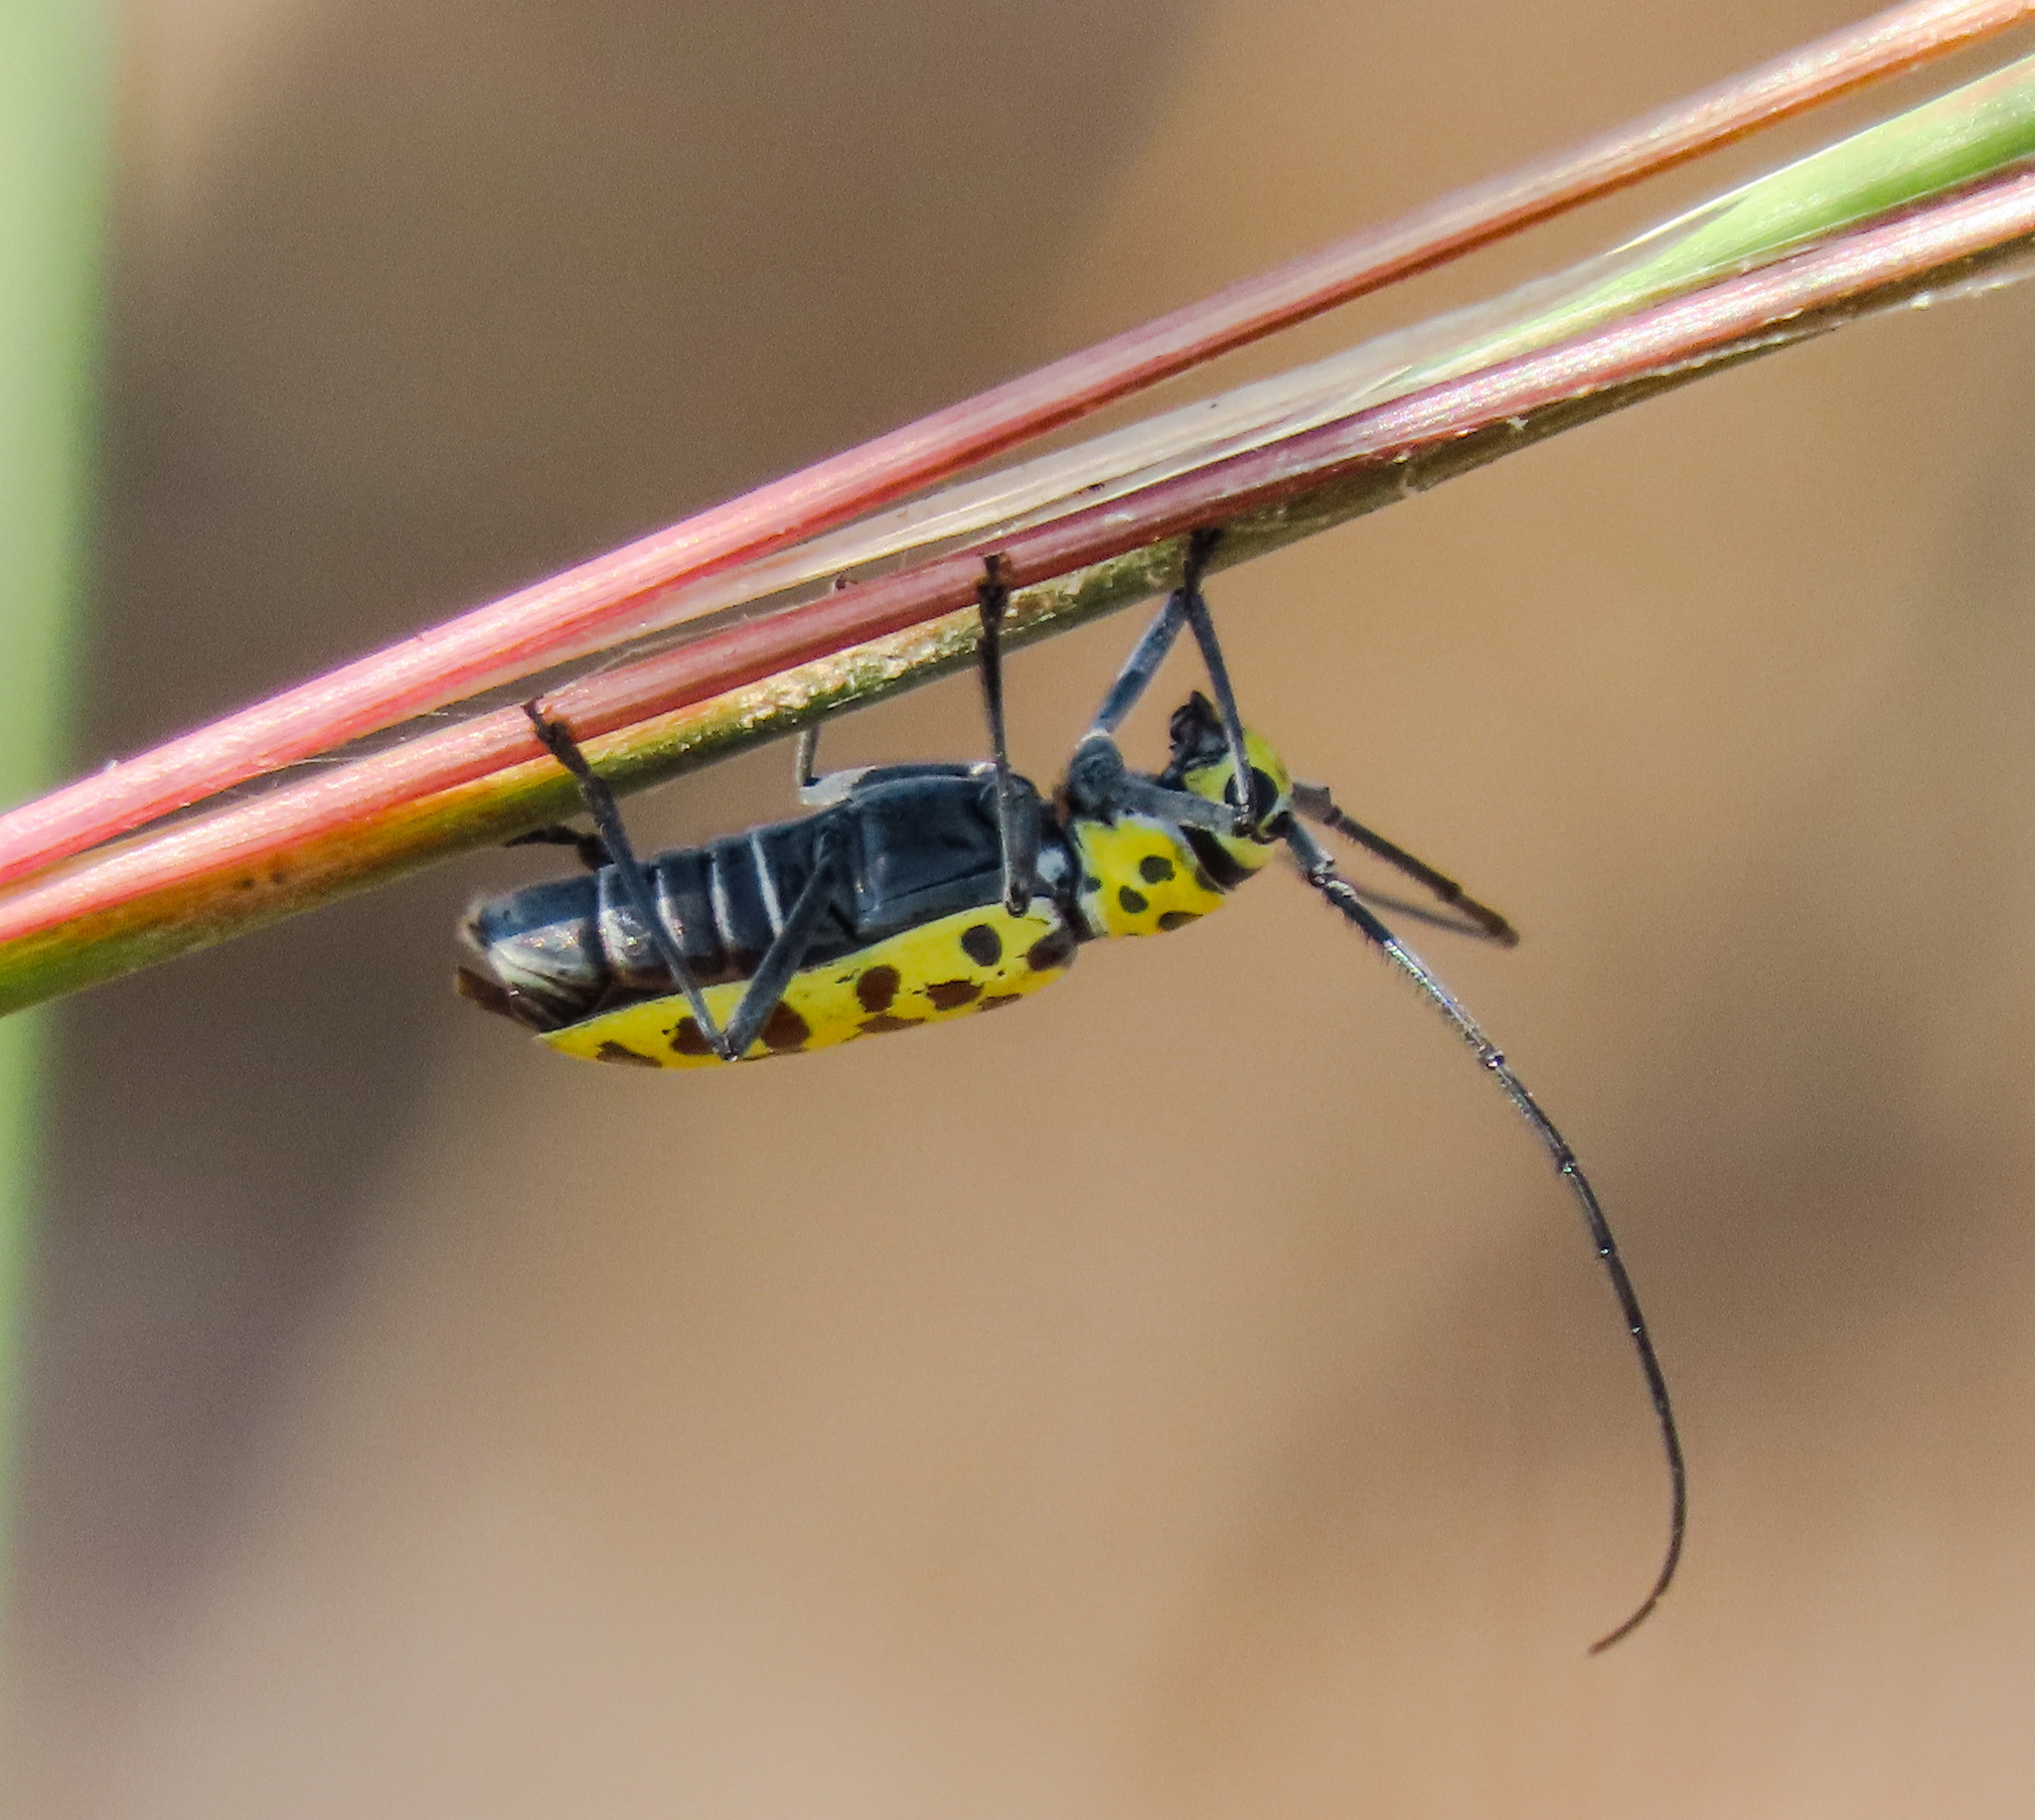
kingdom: Animalia
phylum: Arthropoda
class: Insecta
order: Coleoptera
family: Cerambycidae
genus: Gerania
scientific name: Gerania boscii
